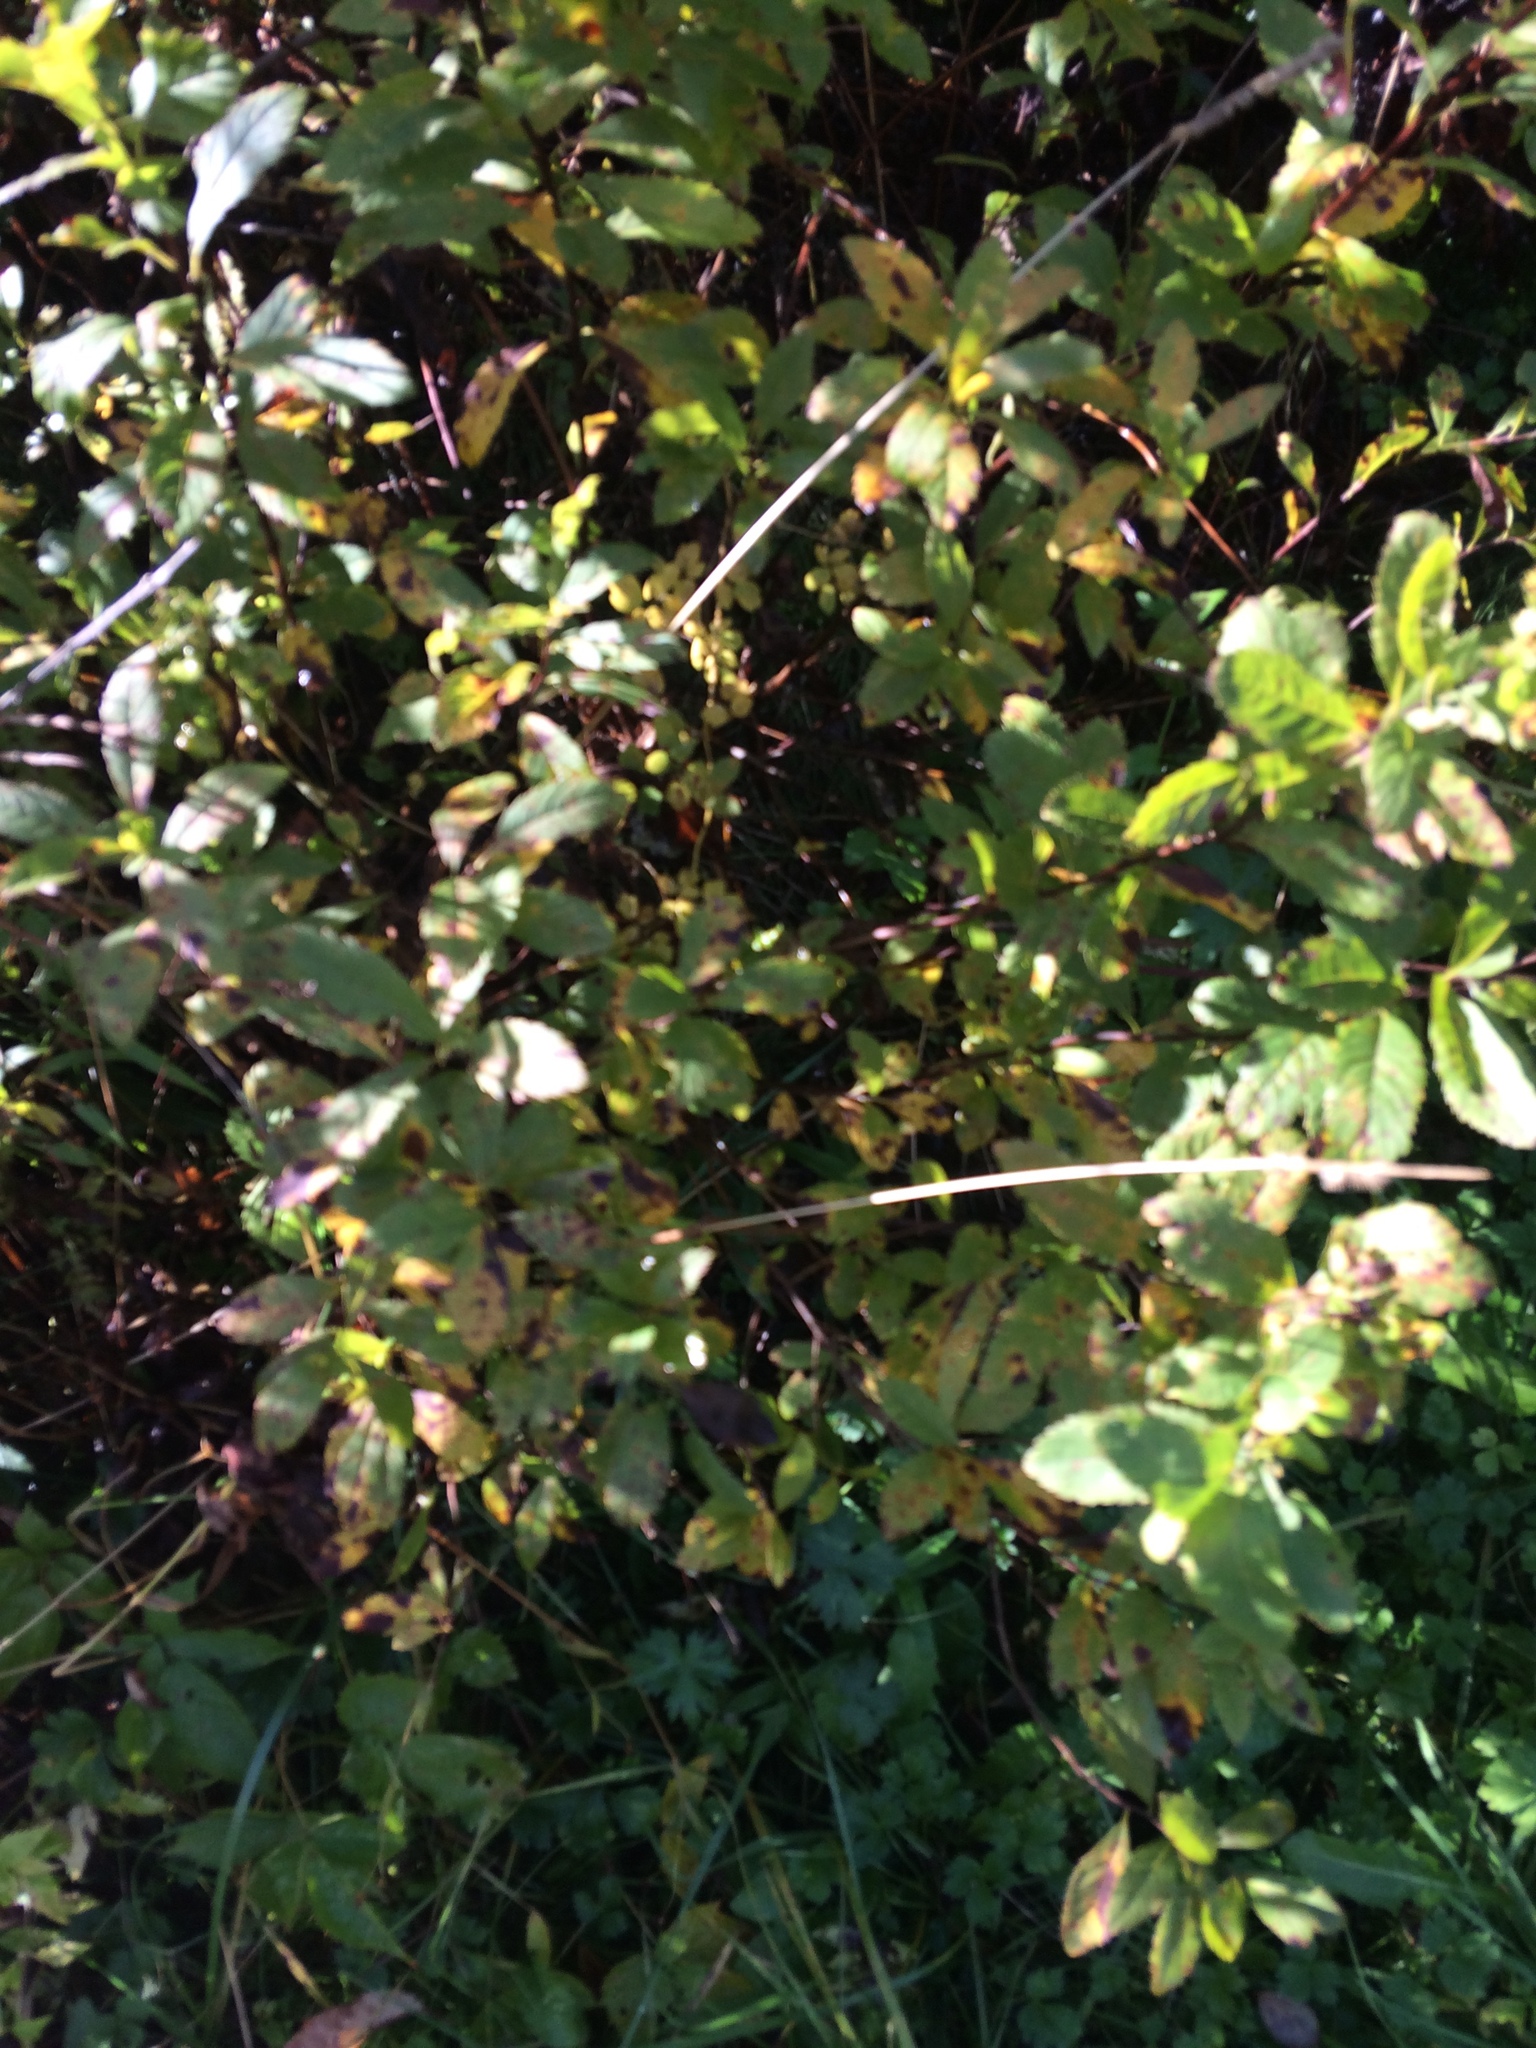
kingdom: Plantae
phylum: Tracheophyta
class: Magnoliopsida
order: Rosales
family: Rosaceae
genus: Spiraea
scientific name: Spiraea alba
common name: Pale bridewort
